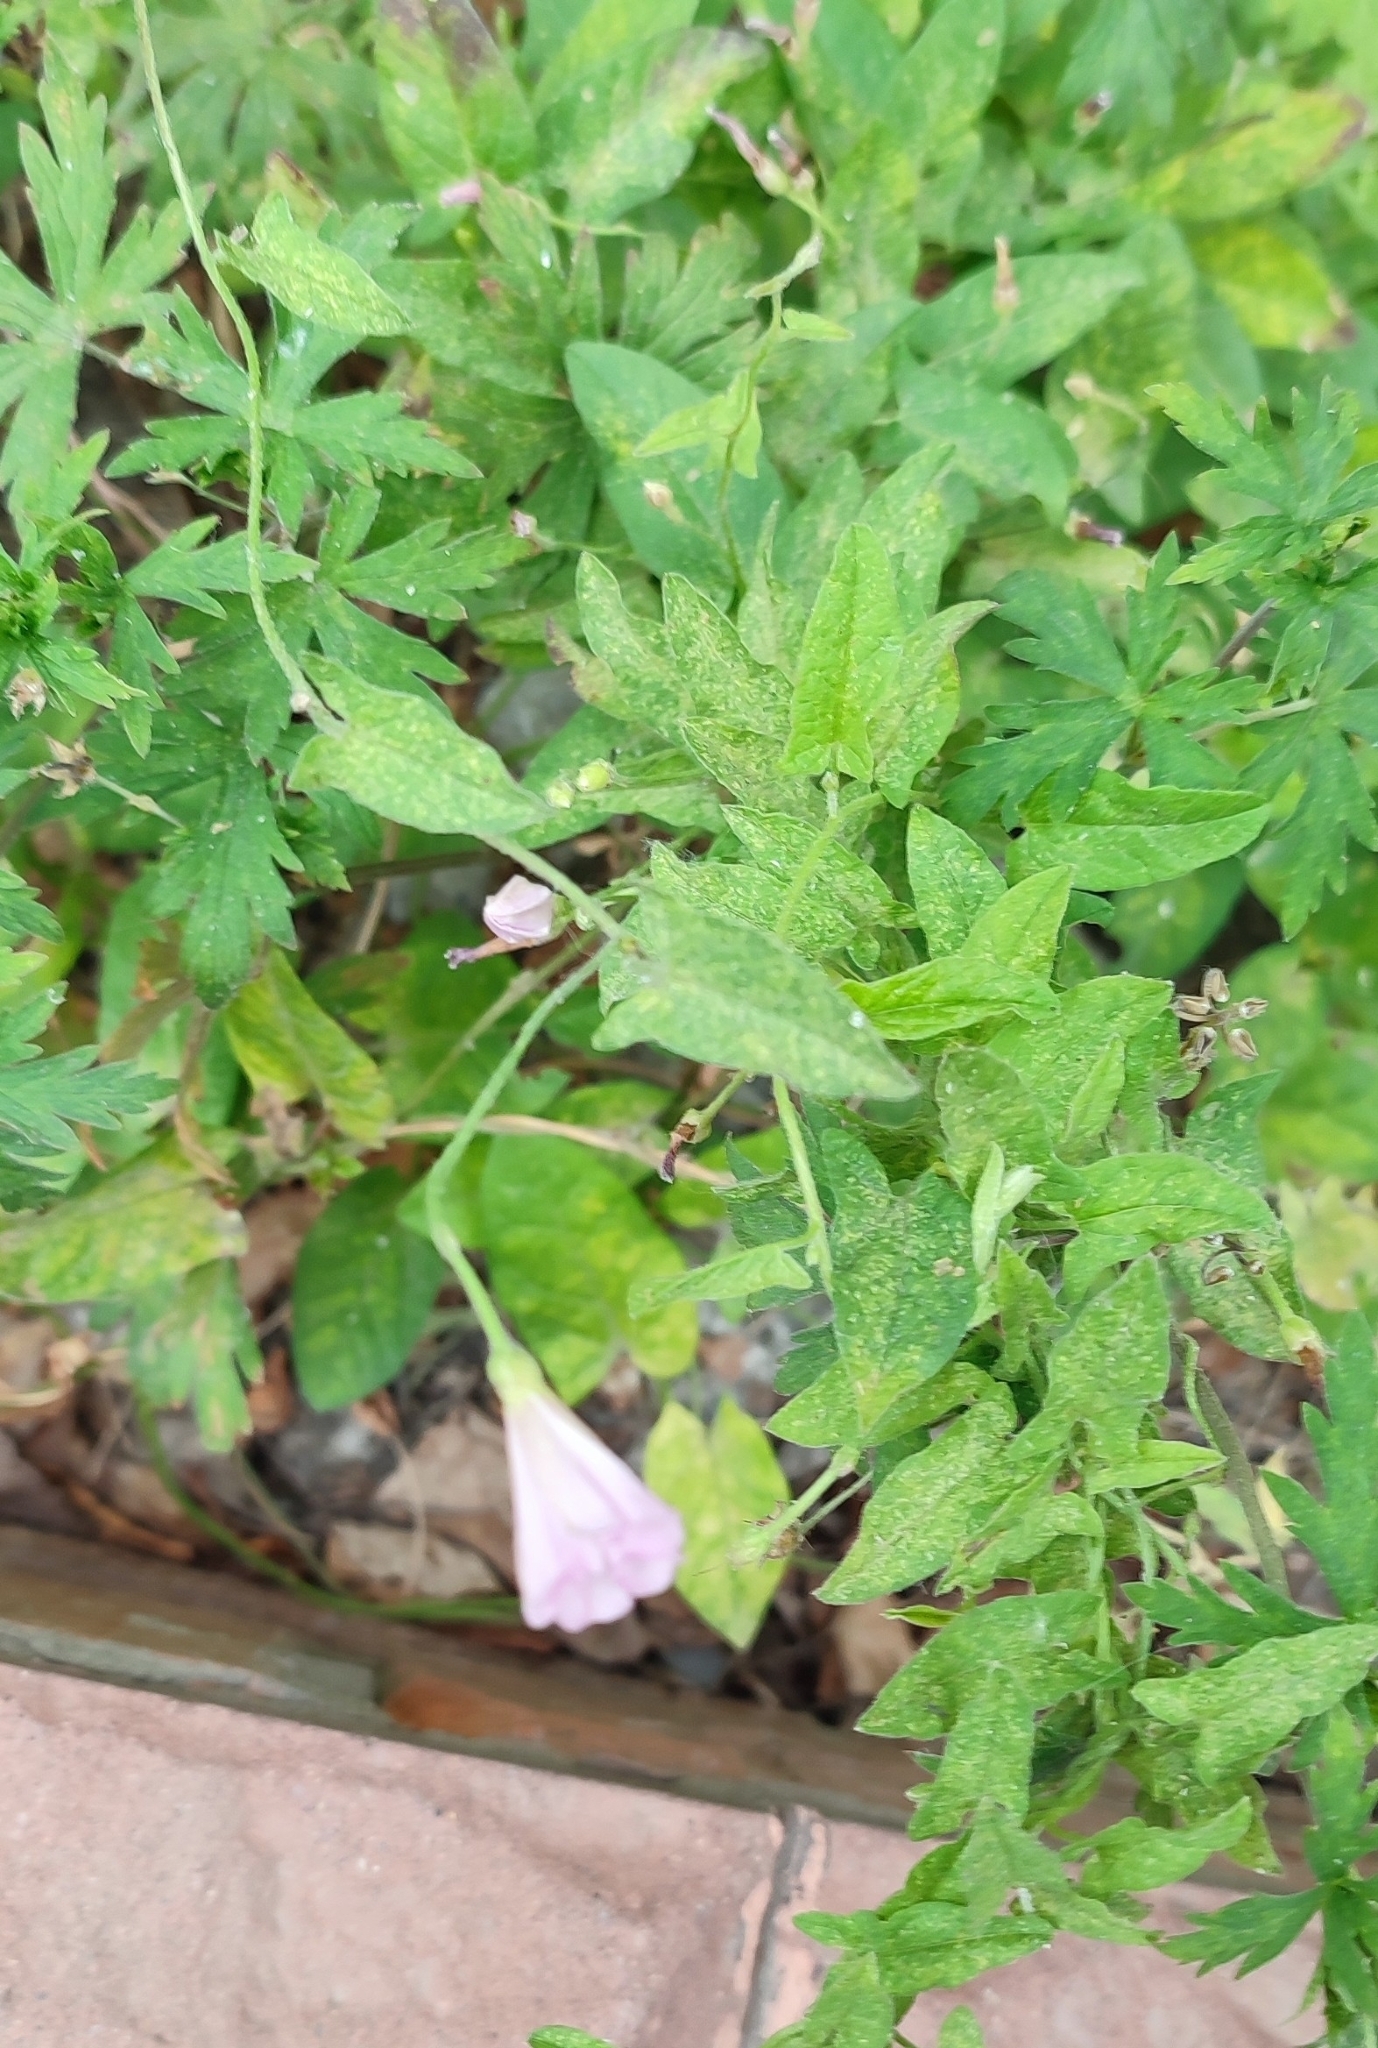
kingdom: Plantae
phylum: Tracheophyta
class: Magnoliopsida
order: Solanales
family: Convolvulaceae
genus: Convolvulus
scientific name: Convolvulus arvensis
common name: Field bindweed
